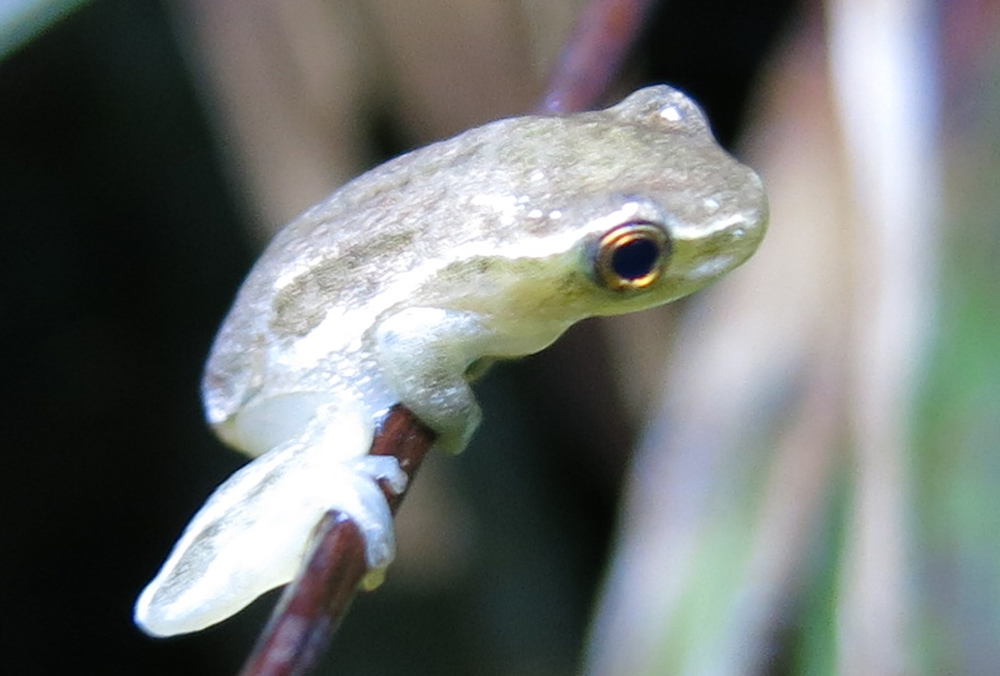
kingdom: Animalia
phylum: Chordata
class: Amphibia
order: Anura
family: Hyperoliidae
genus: Hyperolius
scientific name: Hyperolius pickersgilli
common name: Pickersgill's reed frog
